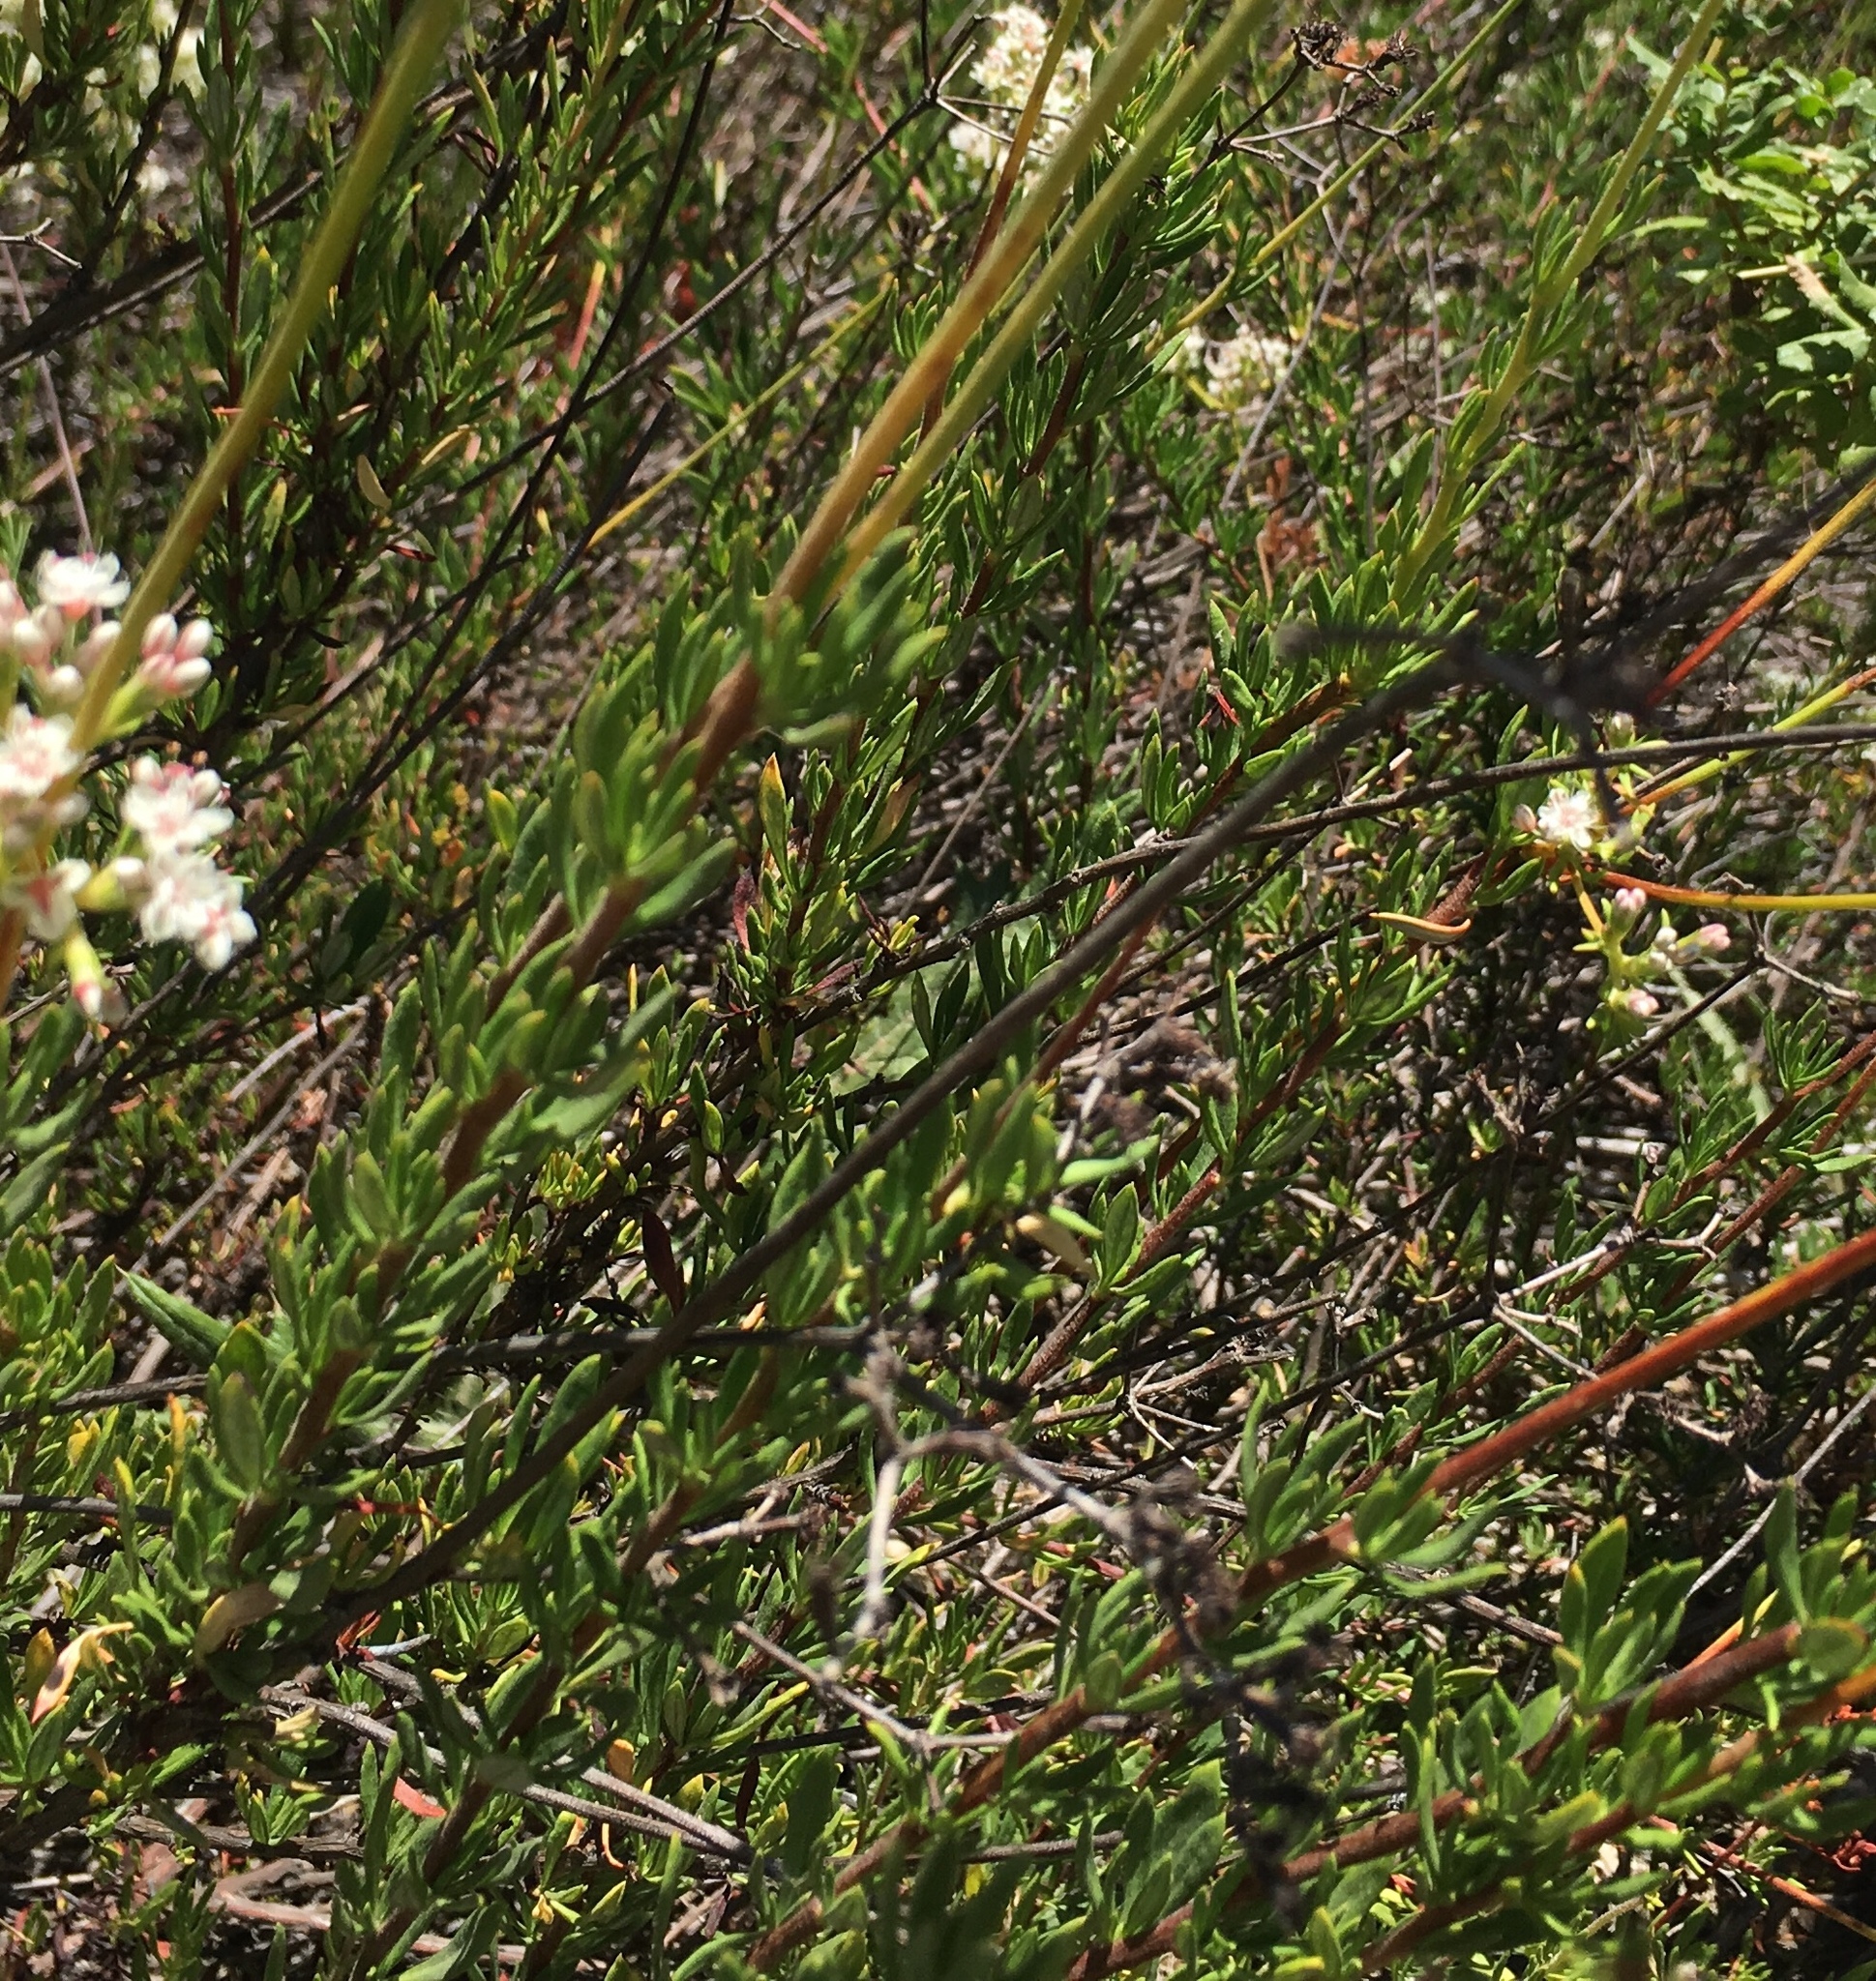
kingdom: Plantae
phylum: Tracheophyta
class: Magnoliopsida
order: Caryophyllales
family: Polygonaceae
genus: Eriogonum
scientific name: Eriogonum fasciculatum
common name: California wild buckwheat
